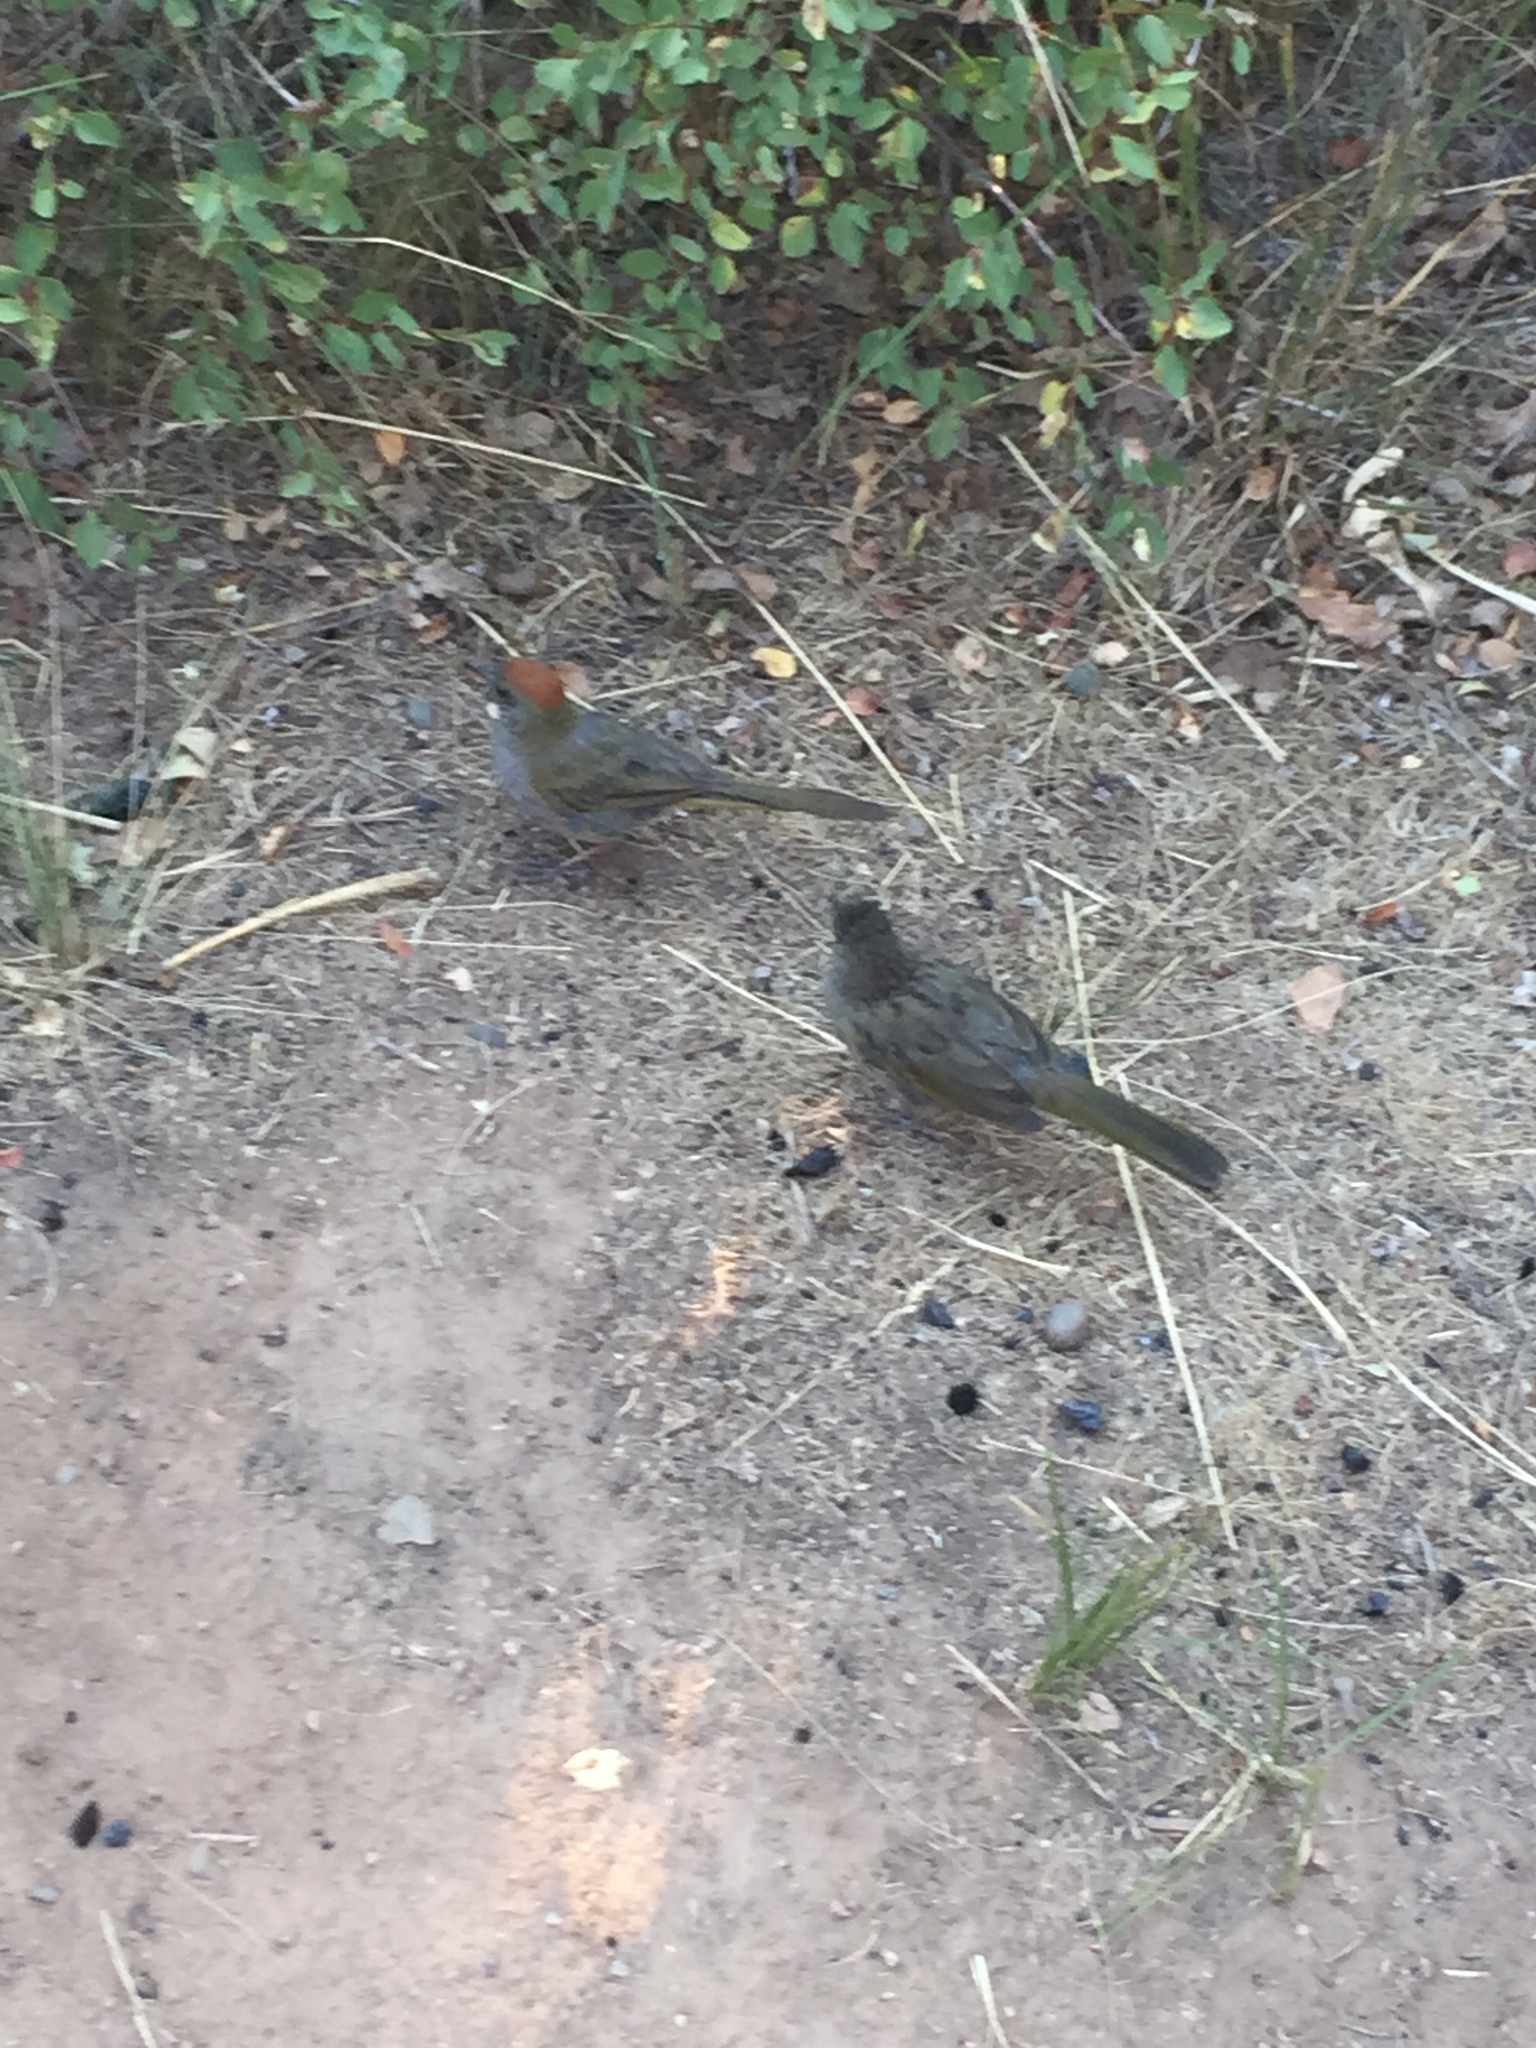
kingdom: Animalia
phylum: Chordata
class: Aves
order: Passeriformes
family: Passerellidae
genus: Pipilo
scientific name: Pipilo chlorurus
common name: Green-tailed towhee
